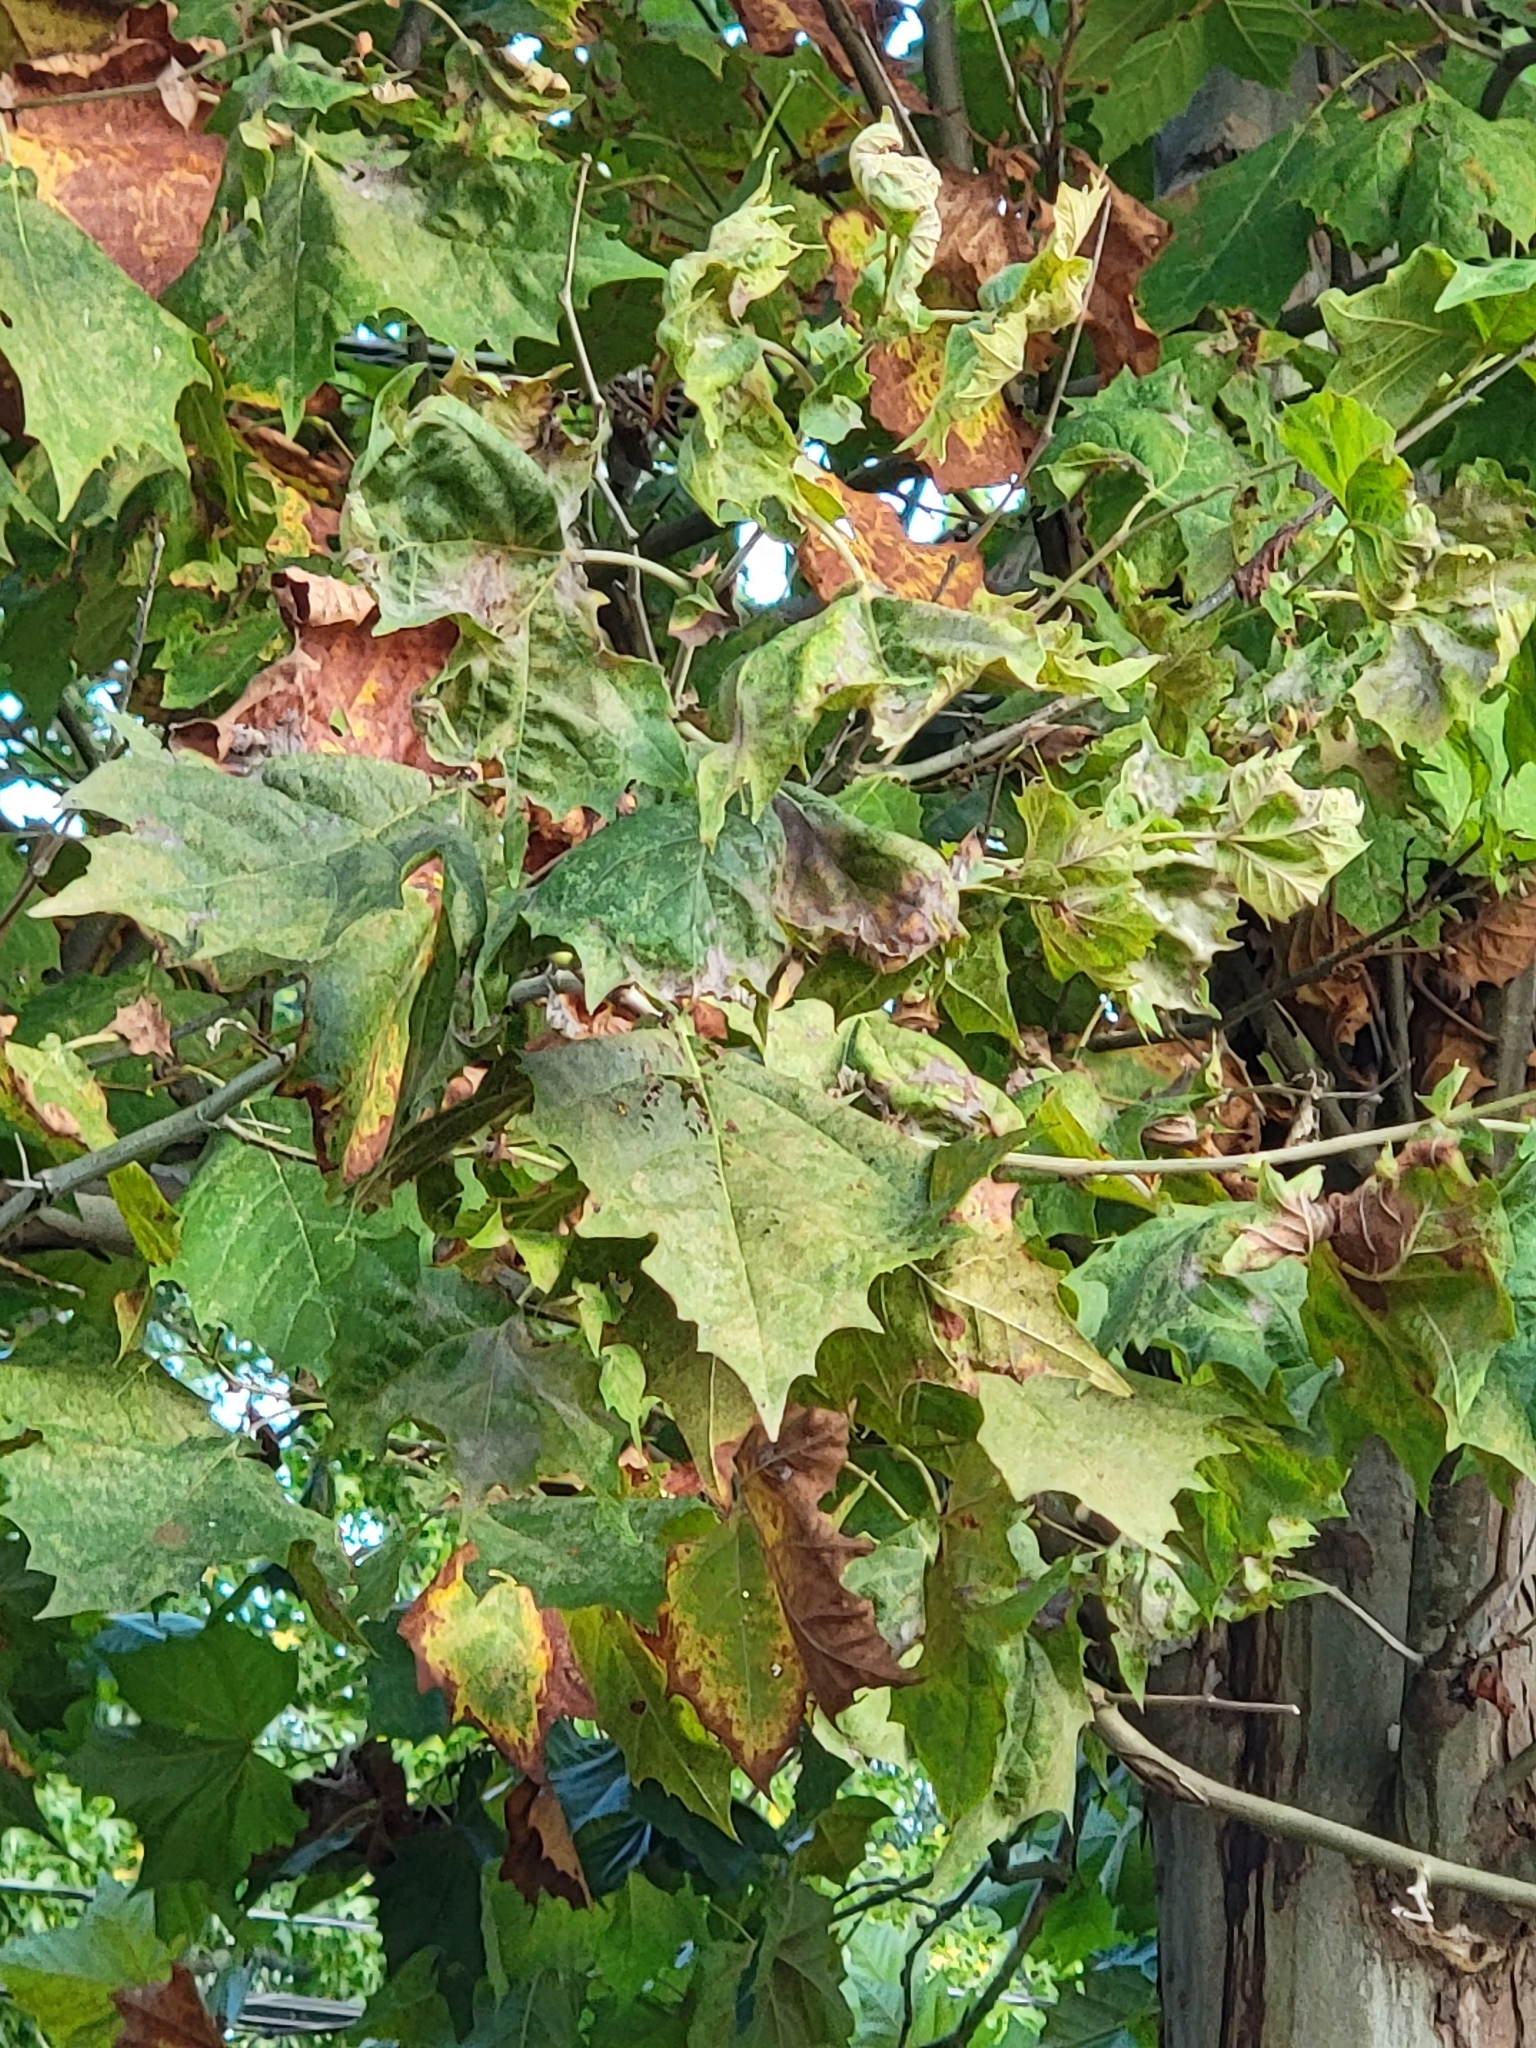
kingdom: Plantae
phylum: Tracheophyta
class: Magnoliopsida
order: Proteales
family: Platanaceae
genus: Platanus
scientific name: Platanus occidentalis
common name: American sycamore
